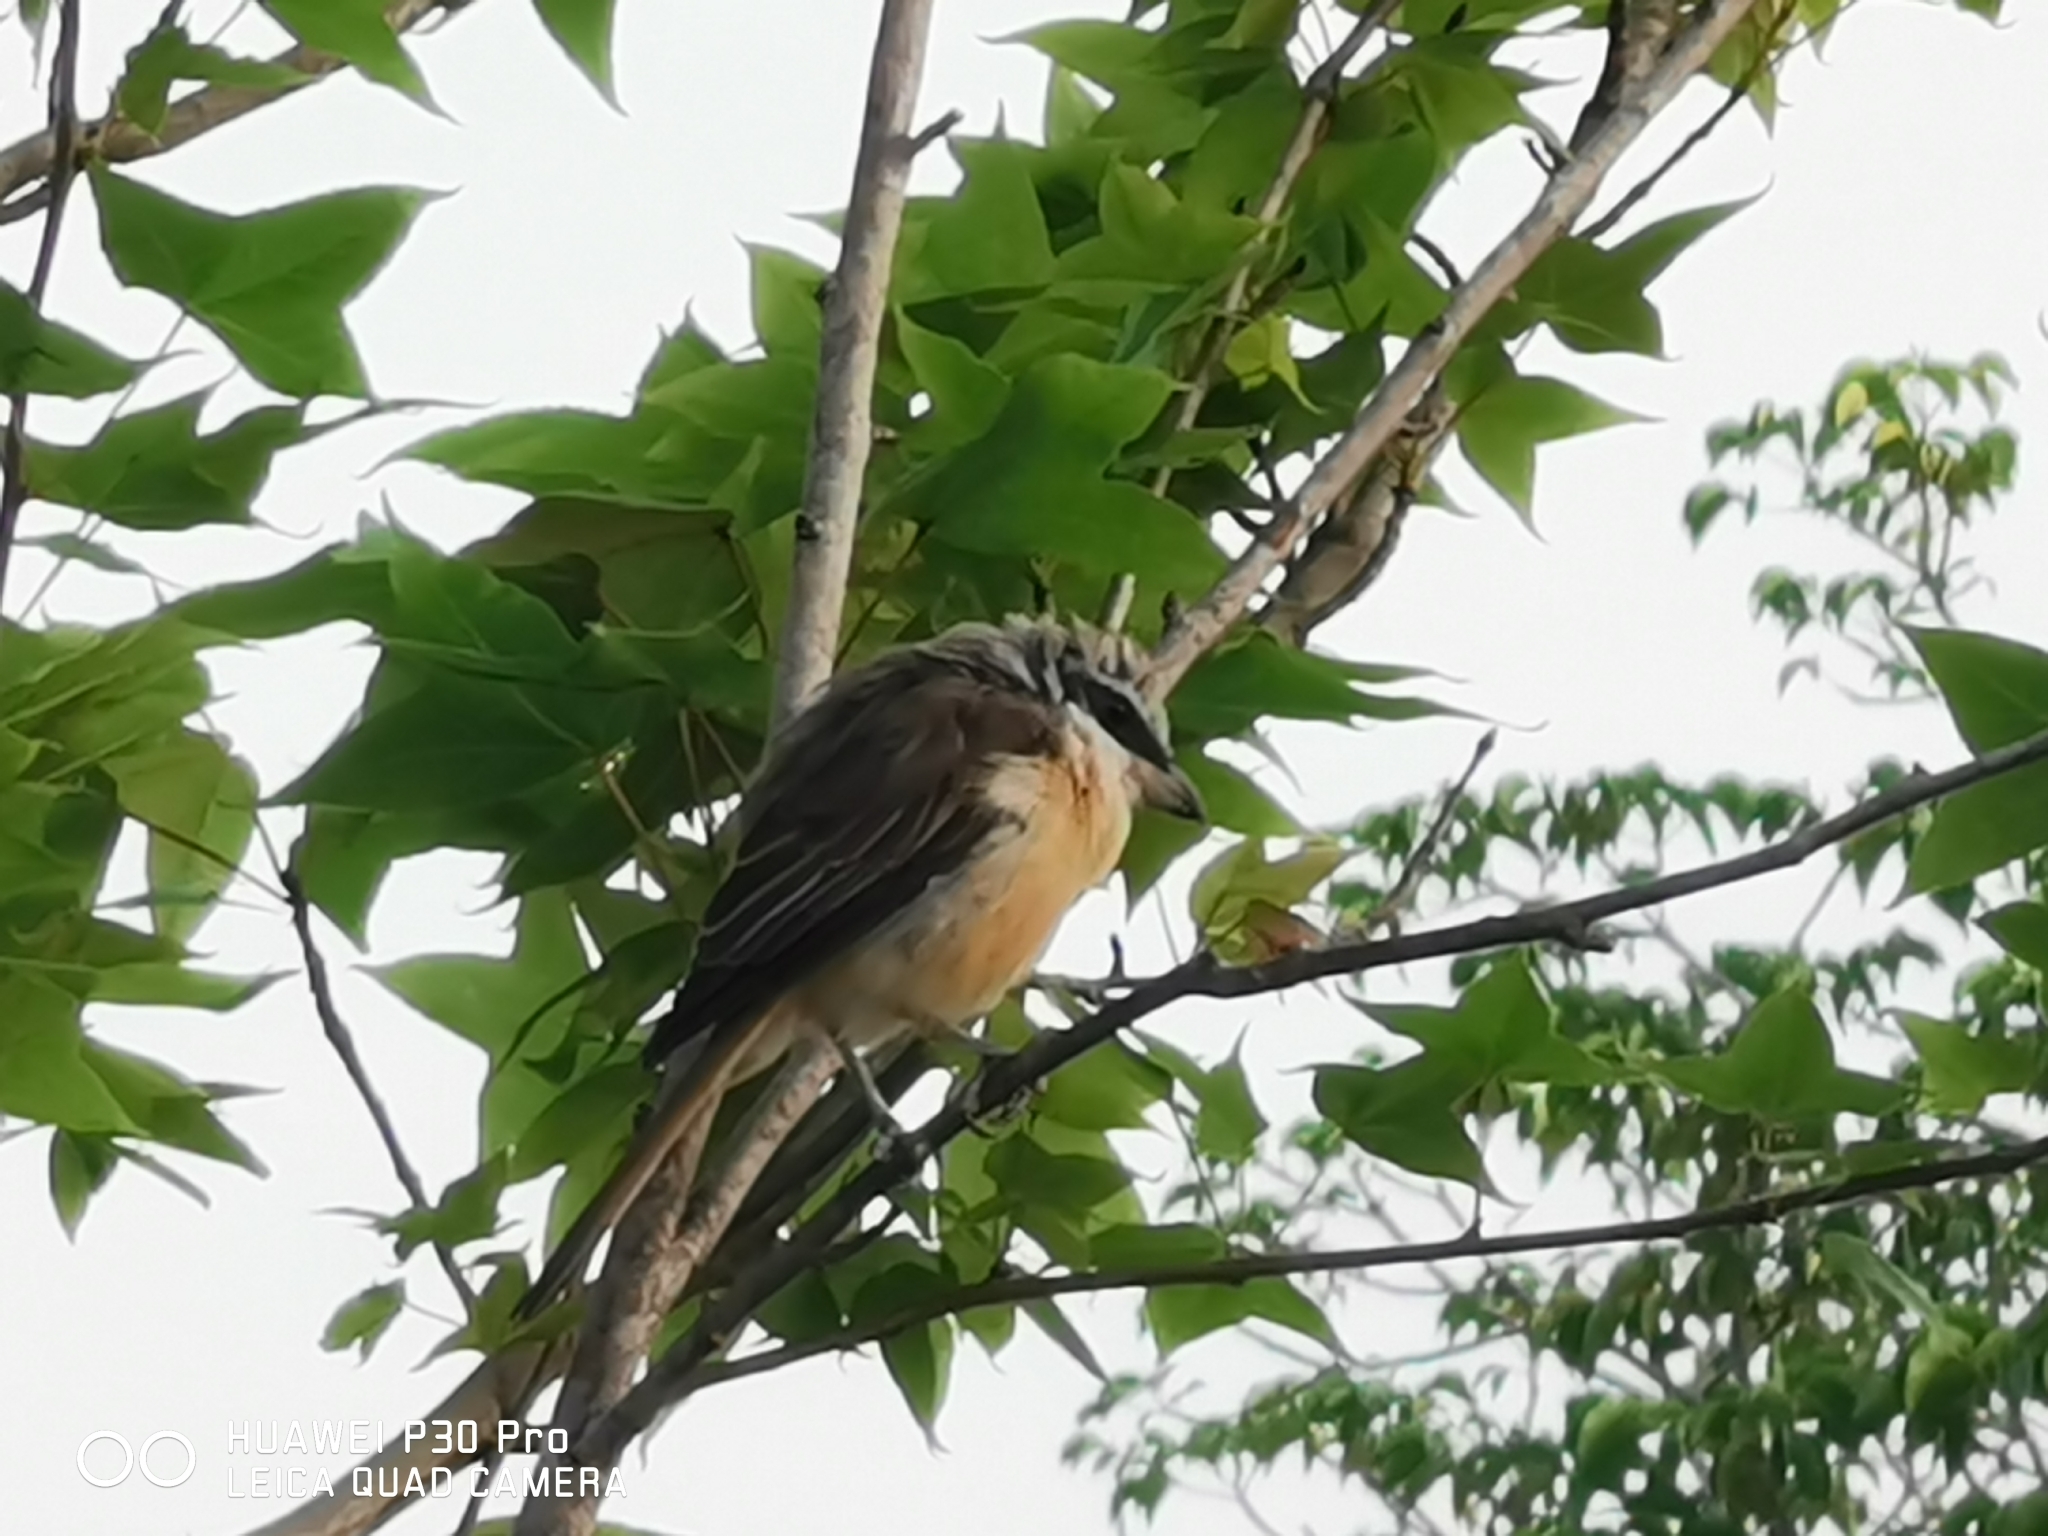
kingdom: Animalia
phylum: Chordata
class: Aves
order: Passeriformes
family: Laniidae
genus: Lanius
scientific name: Lanius cristatus
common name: Brown shrike
